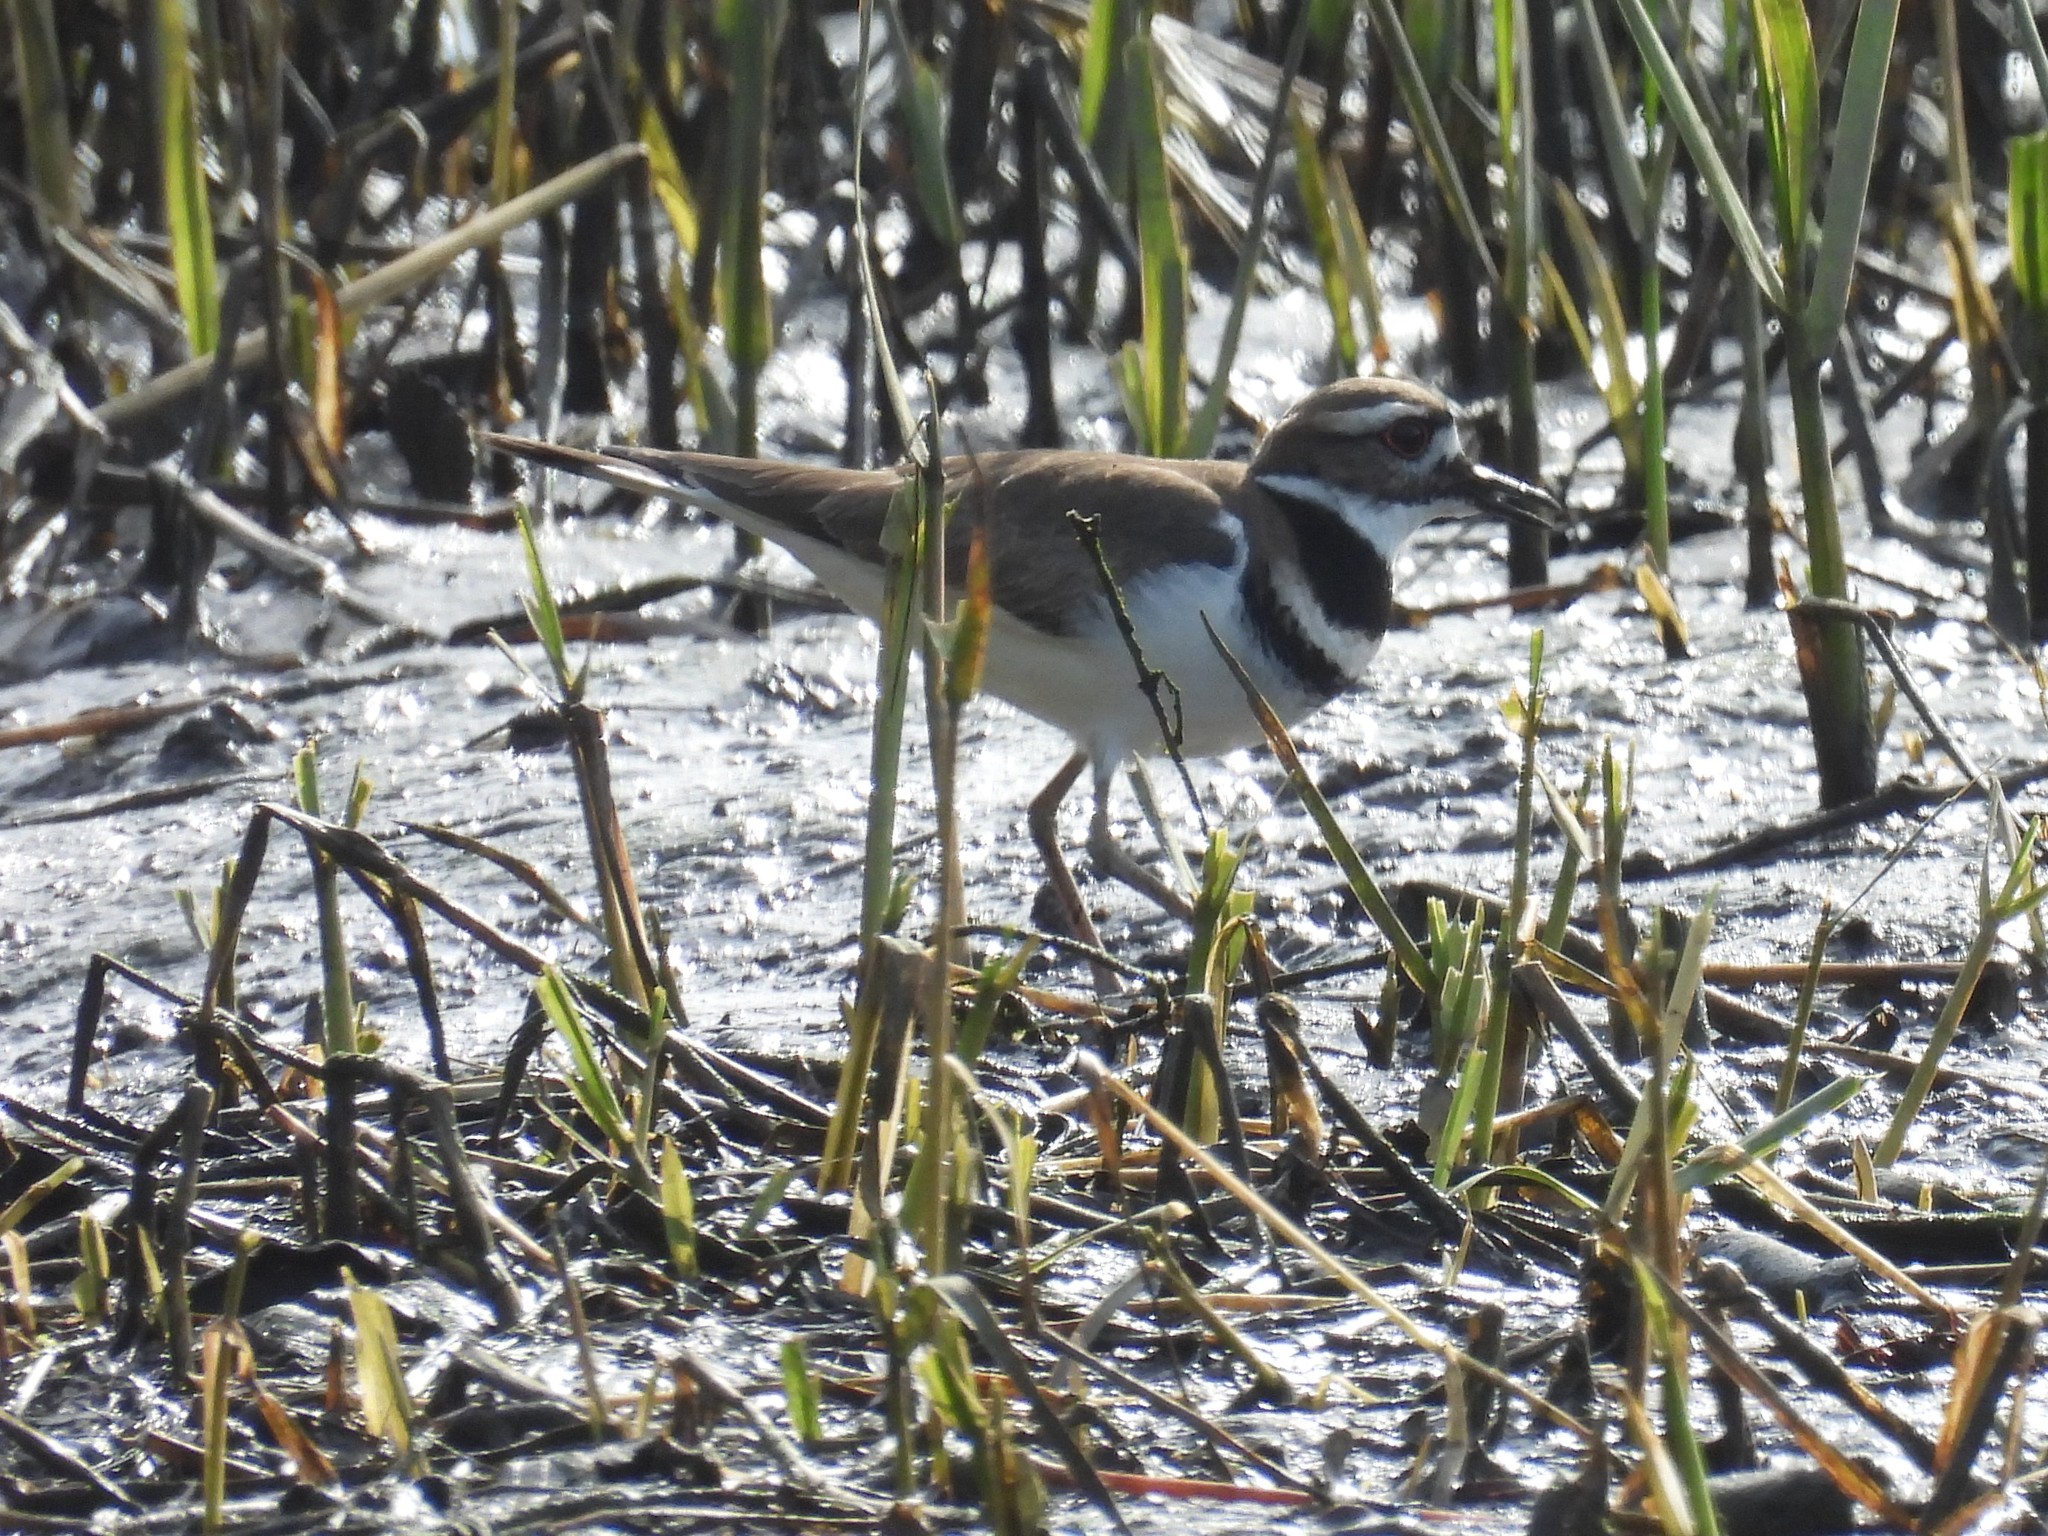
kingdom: Animalia
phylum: Chordata
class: Aves
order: Charadriiformes
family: Charadriidae
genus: Charadrius
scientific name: Charadrius vociferus
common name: Killdeer
